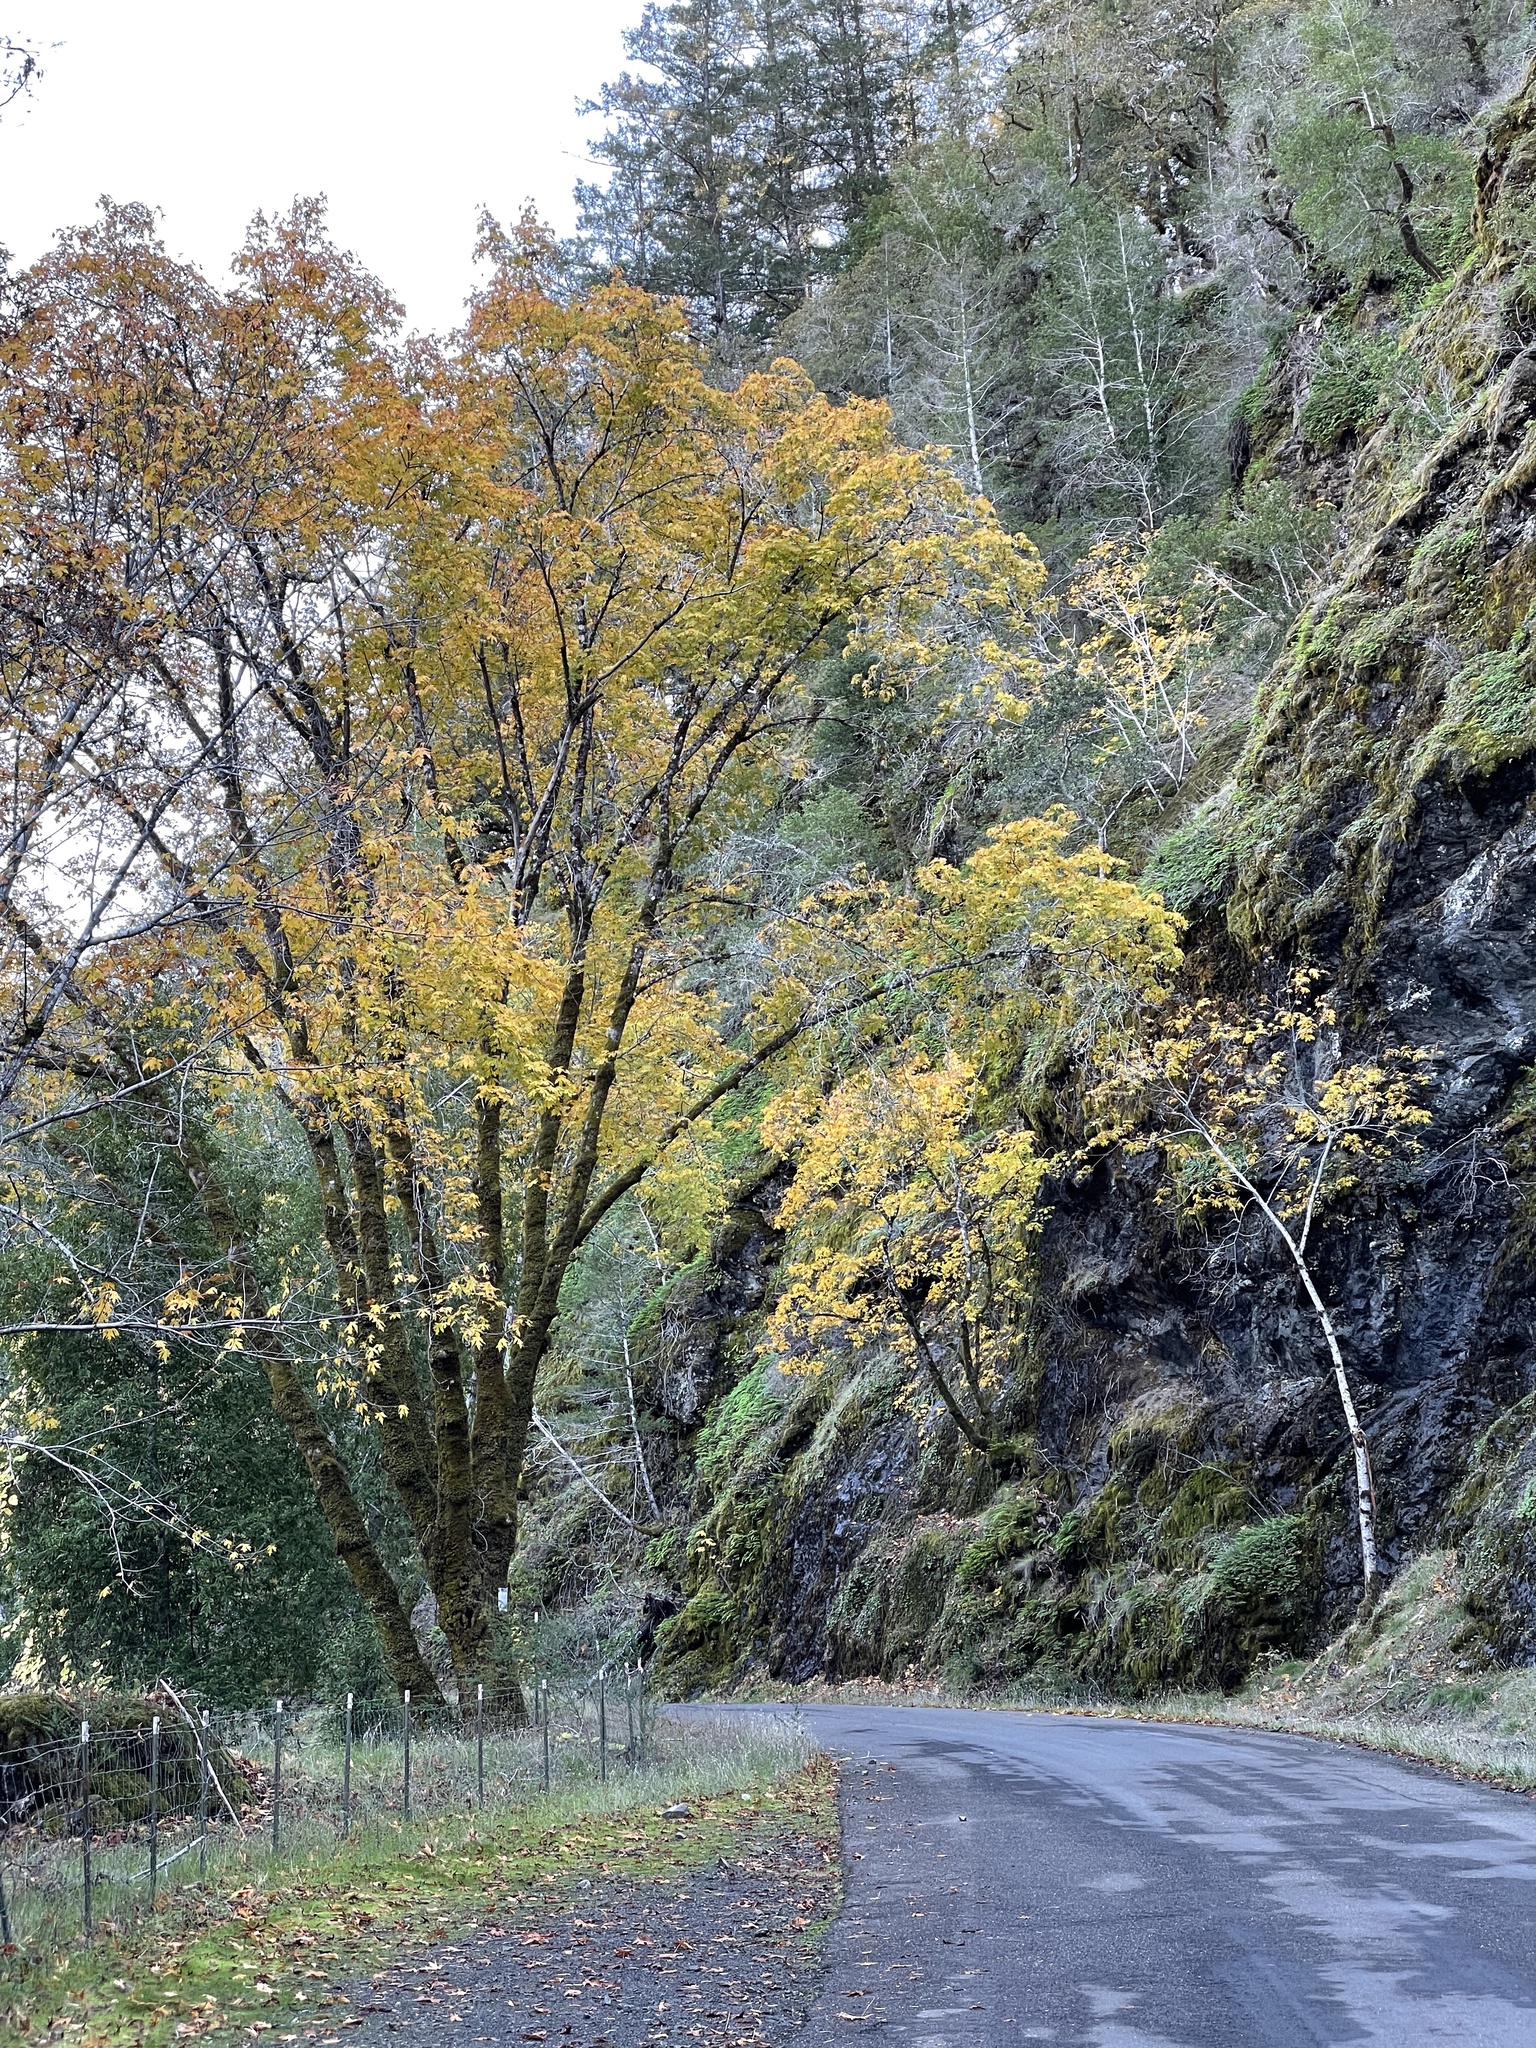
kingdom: Plantae
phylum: Tracheophyta
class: Magnoliopsida
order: Sapindales
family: Sapindaceae
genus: Acer
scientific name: Acer macrophyllum
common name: Oregon maple
